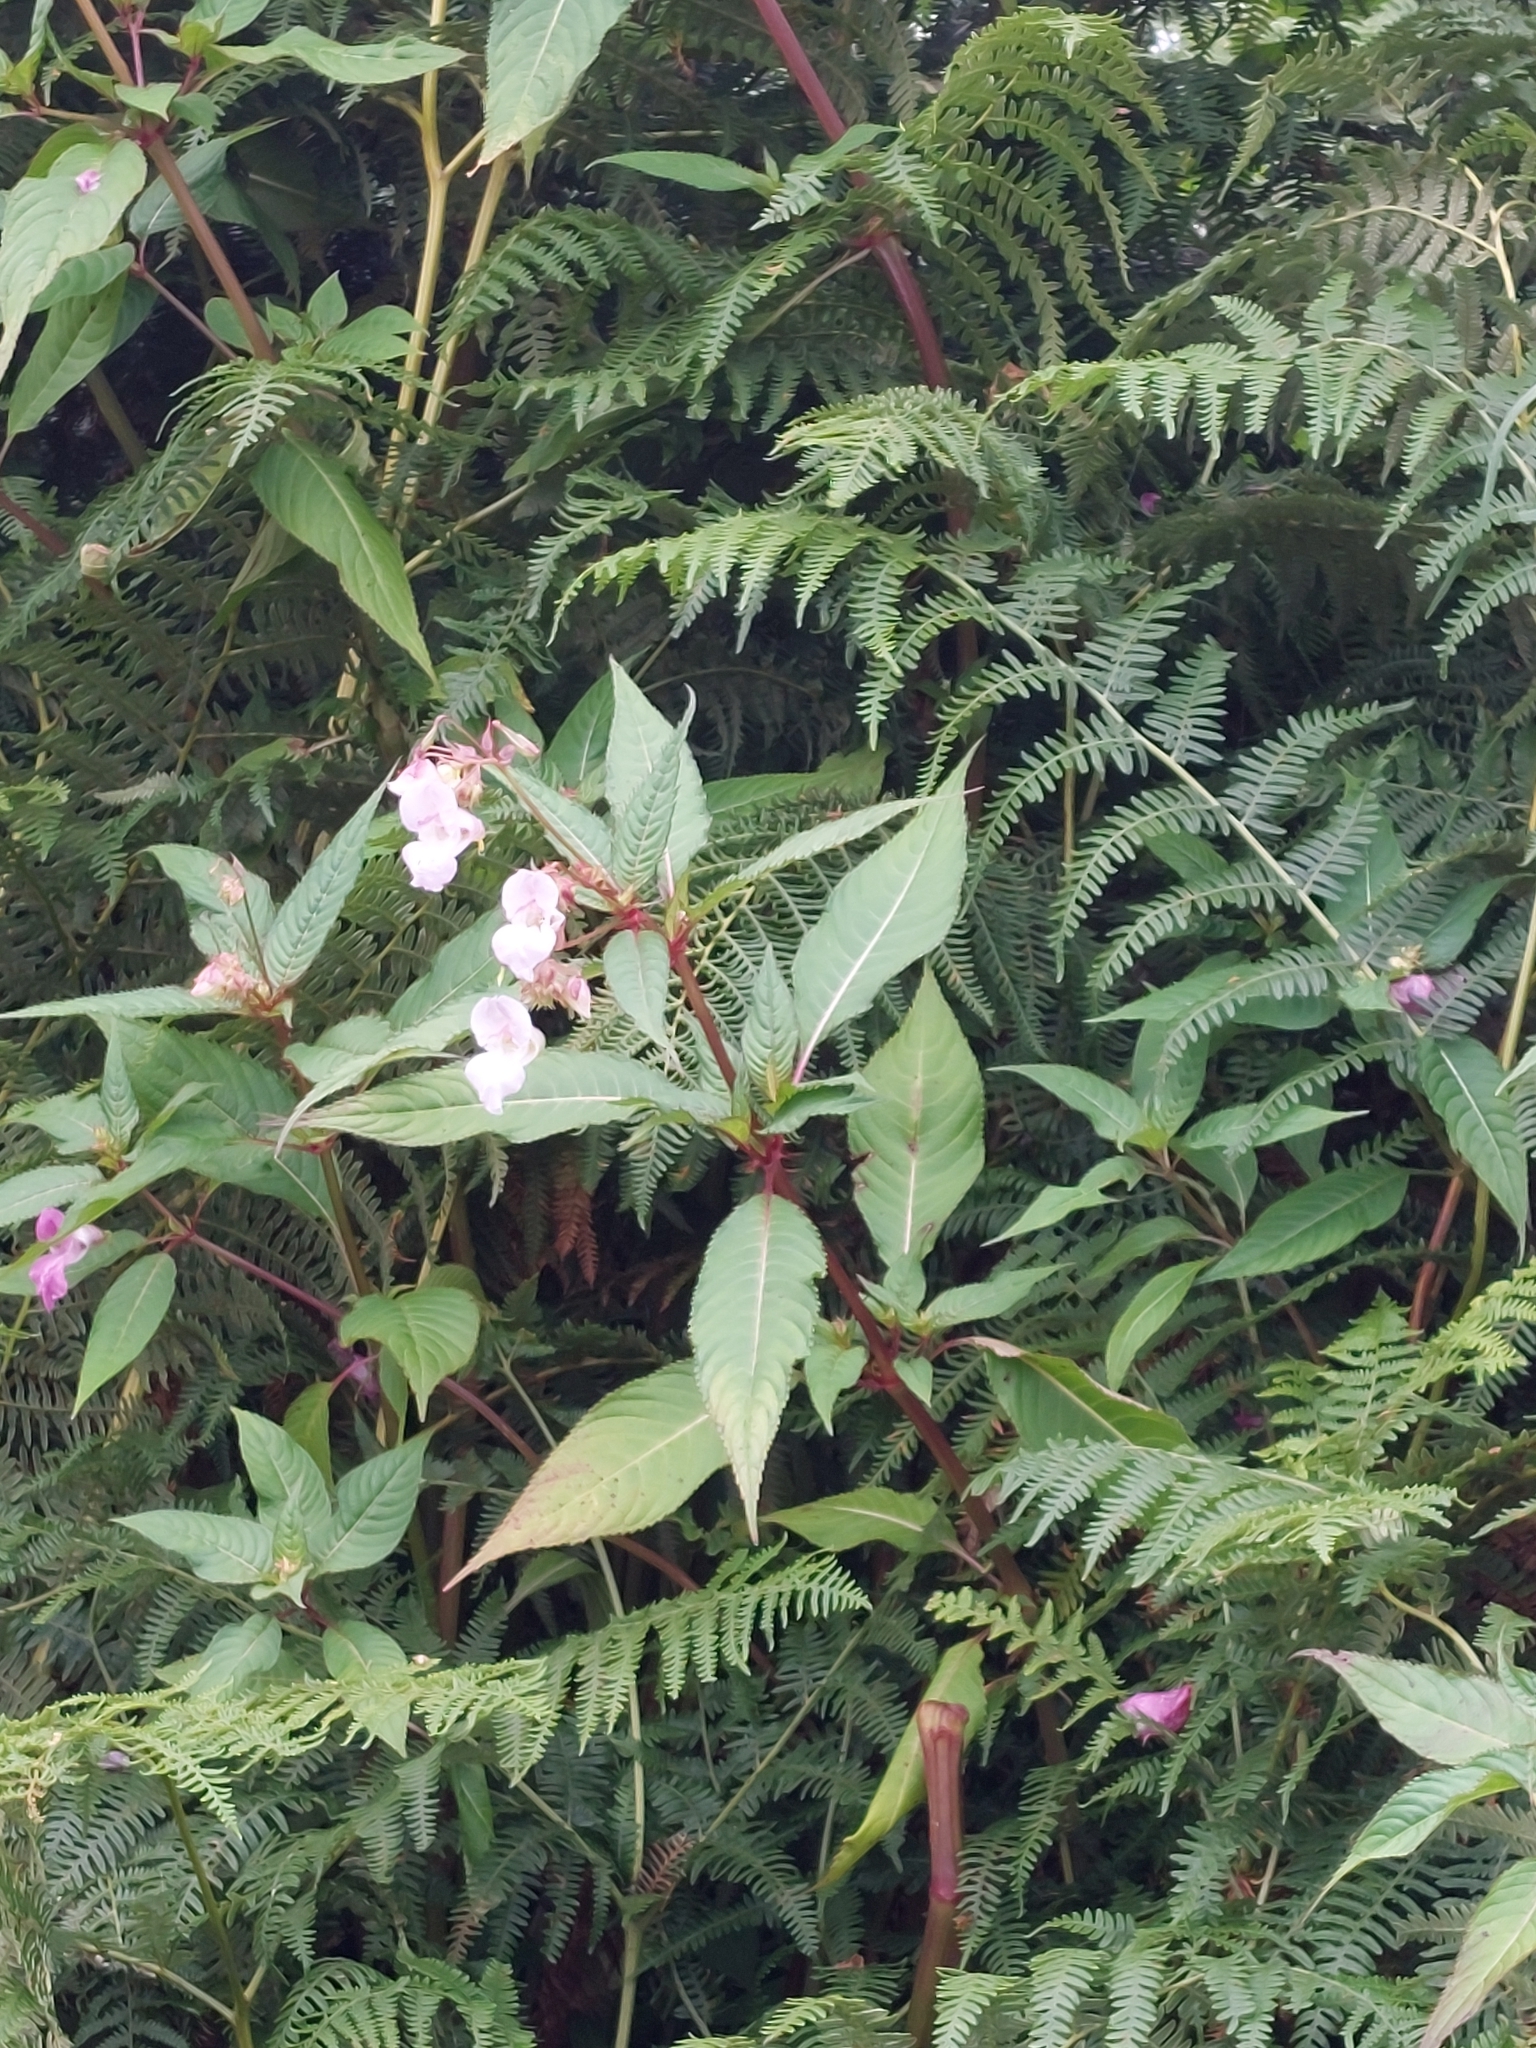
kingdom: Plantae
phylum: Tracheophyta
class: Magnoliopsida
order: Ericales
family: Balsaminaceae
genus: Impatiens
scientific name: Impatiens glandulifera
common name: Himalayan balsam
